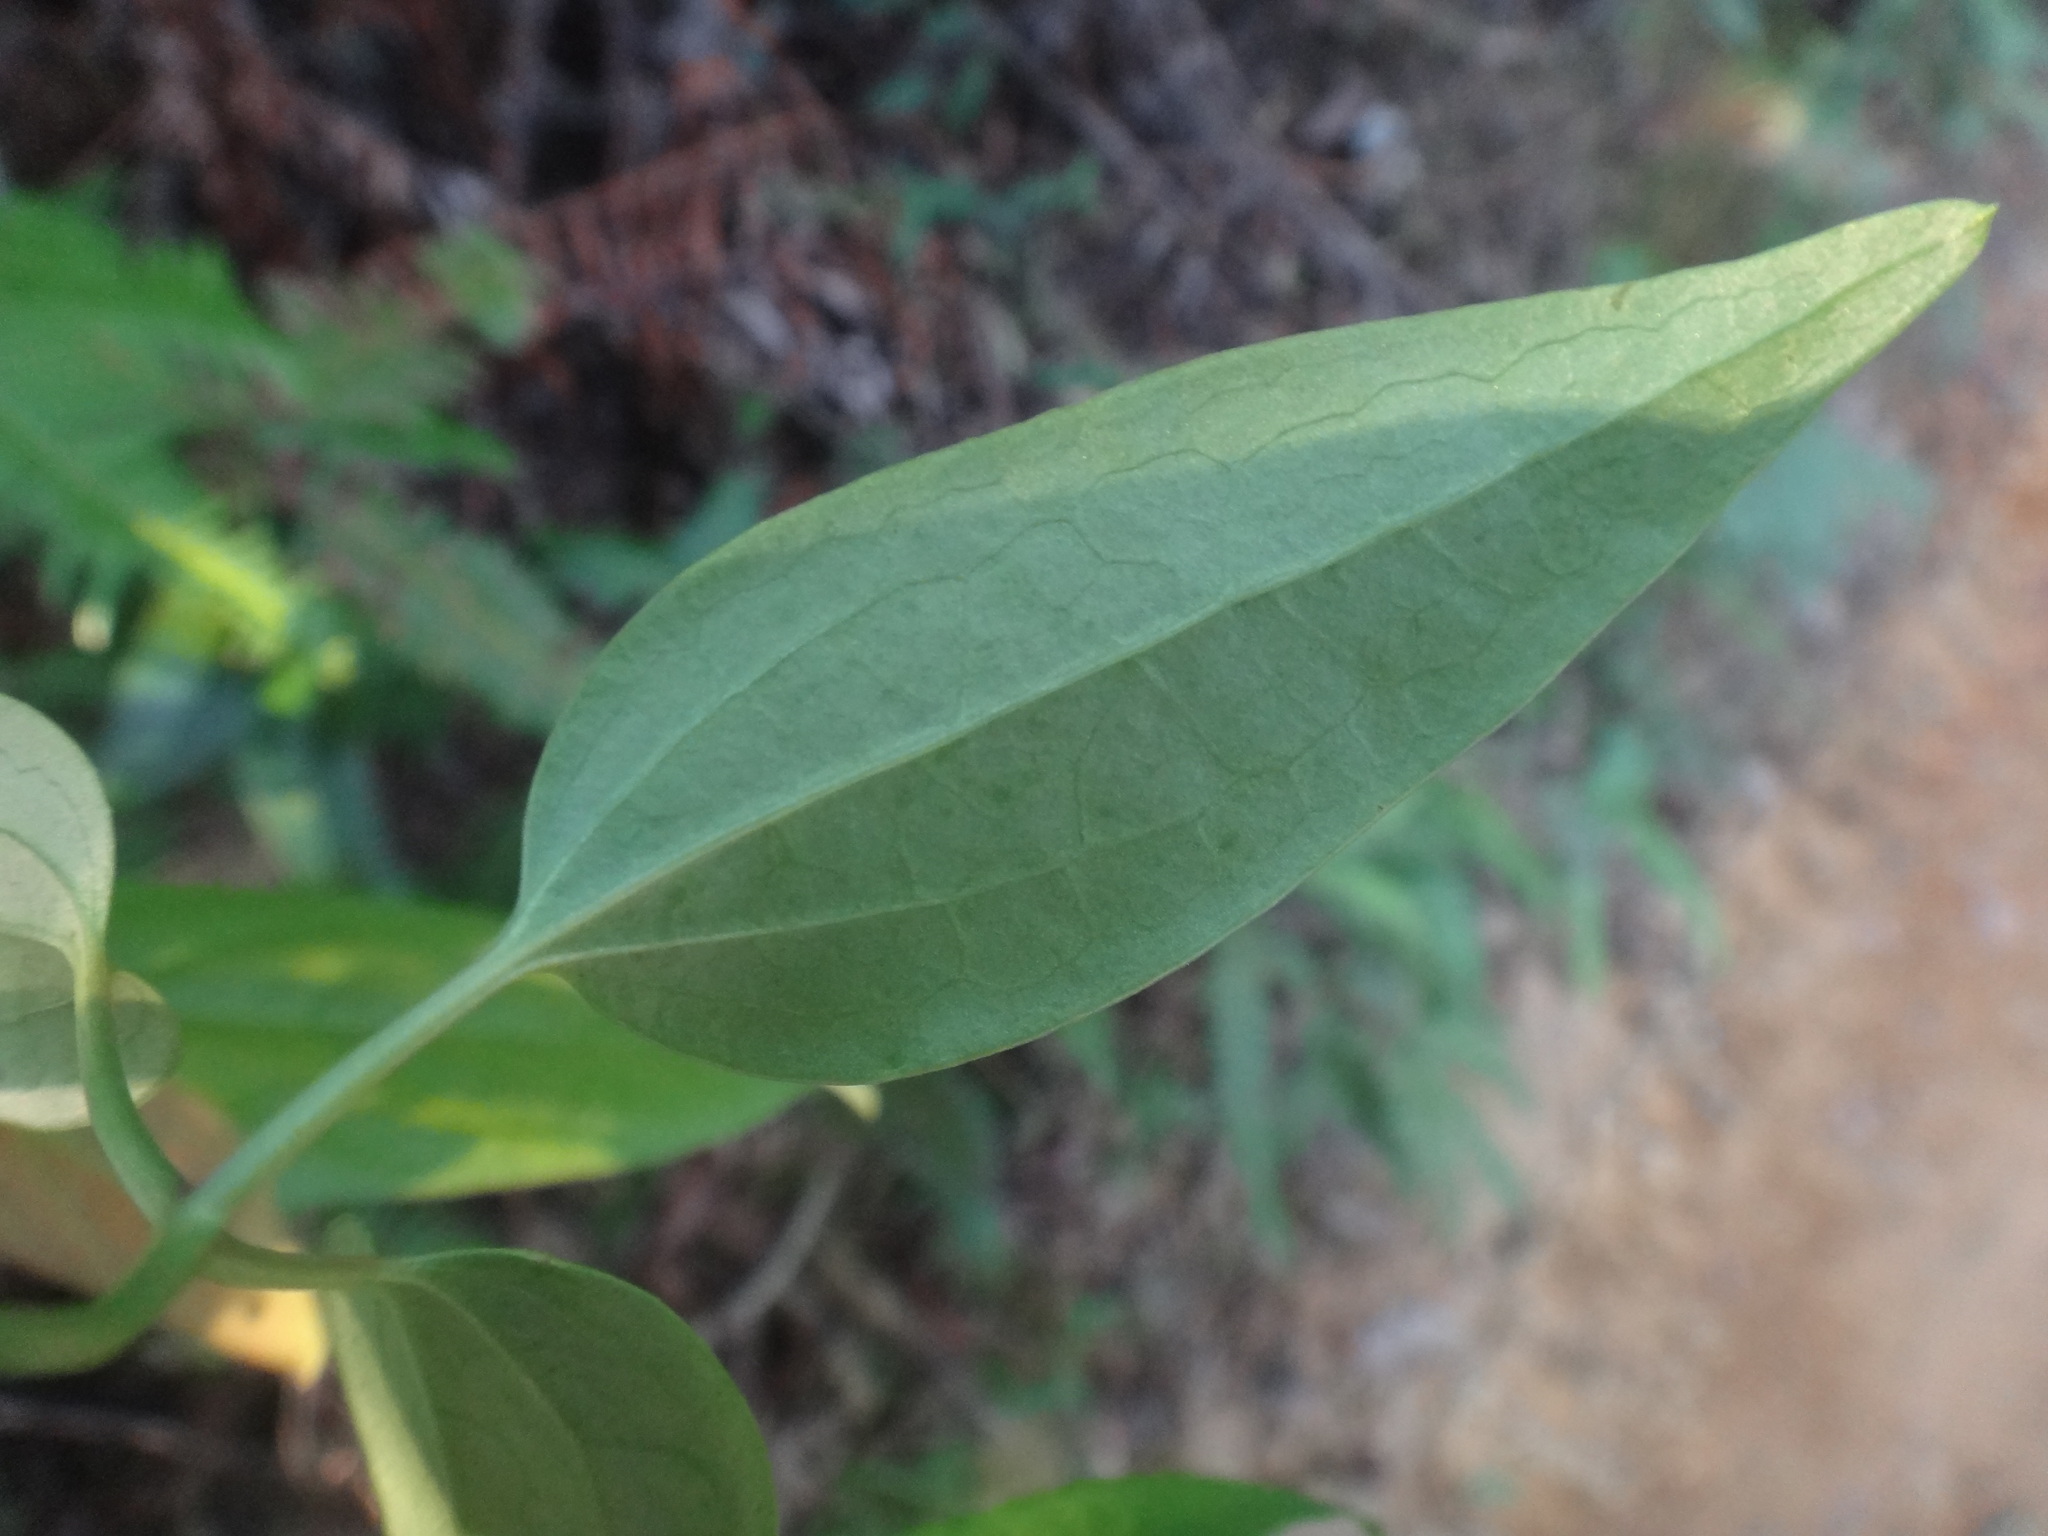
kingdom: Plantae
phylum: Tracheophyta
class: Magnoliopsida
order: Ranunculales
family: Ranunculaceae
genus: Clematis
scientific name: Clematis meyeniana
